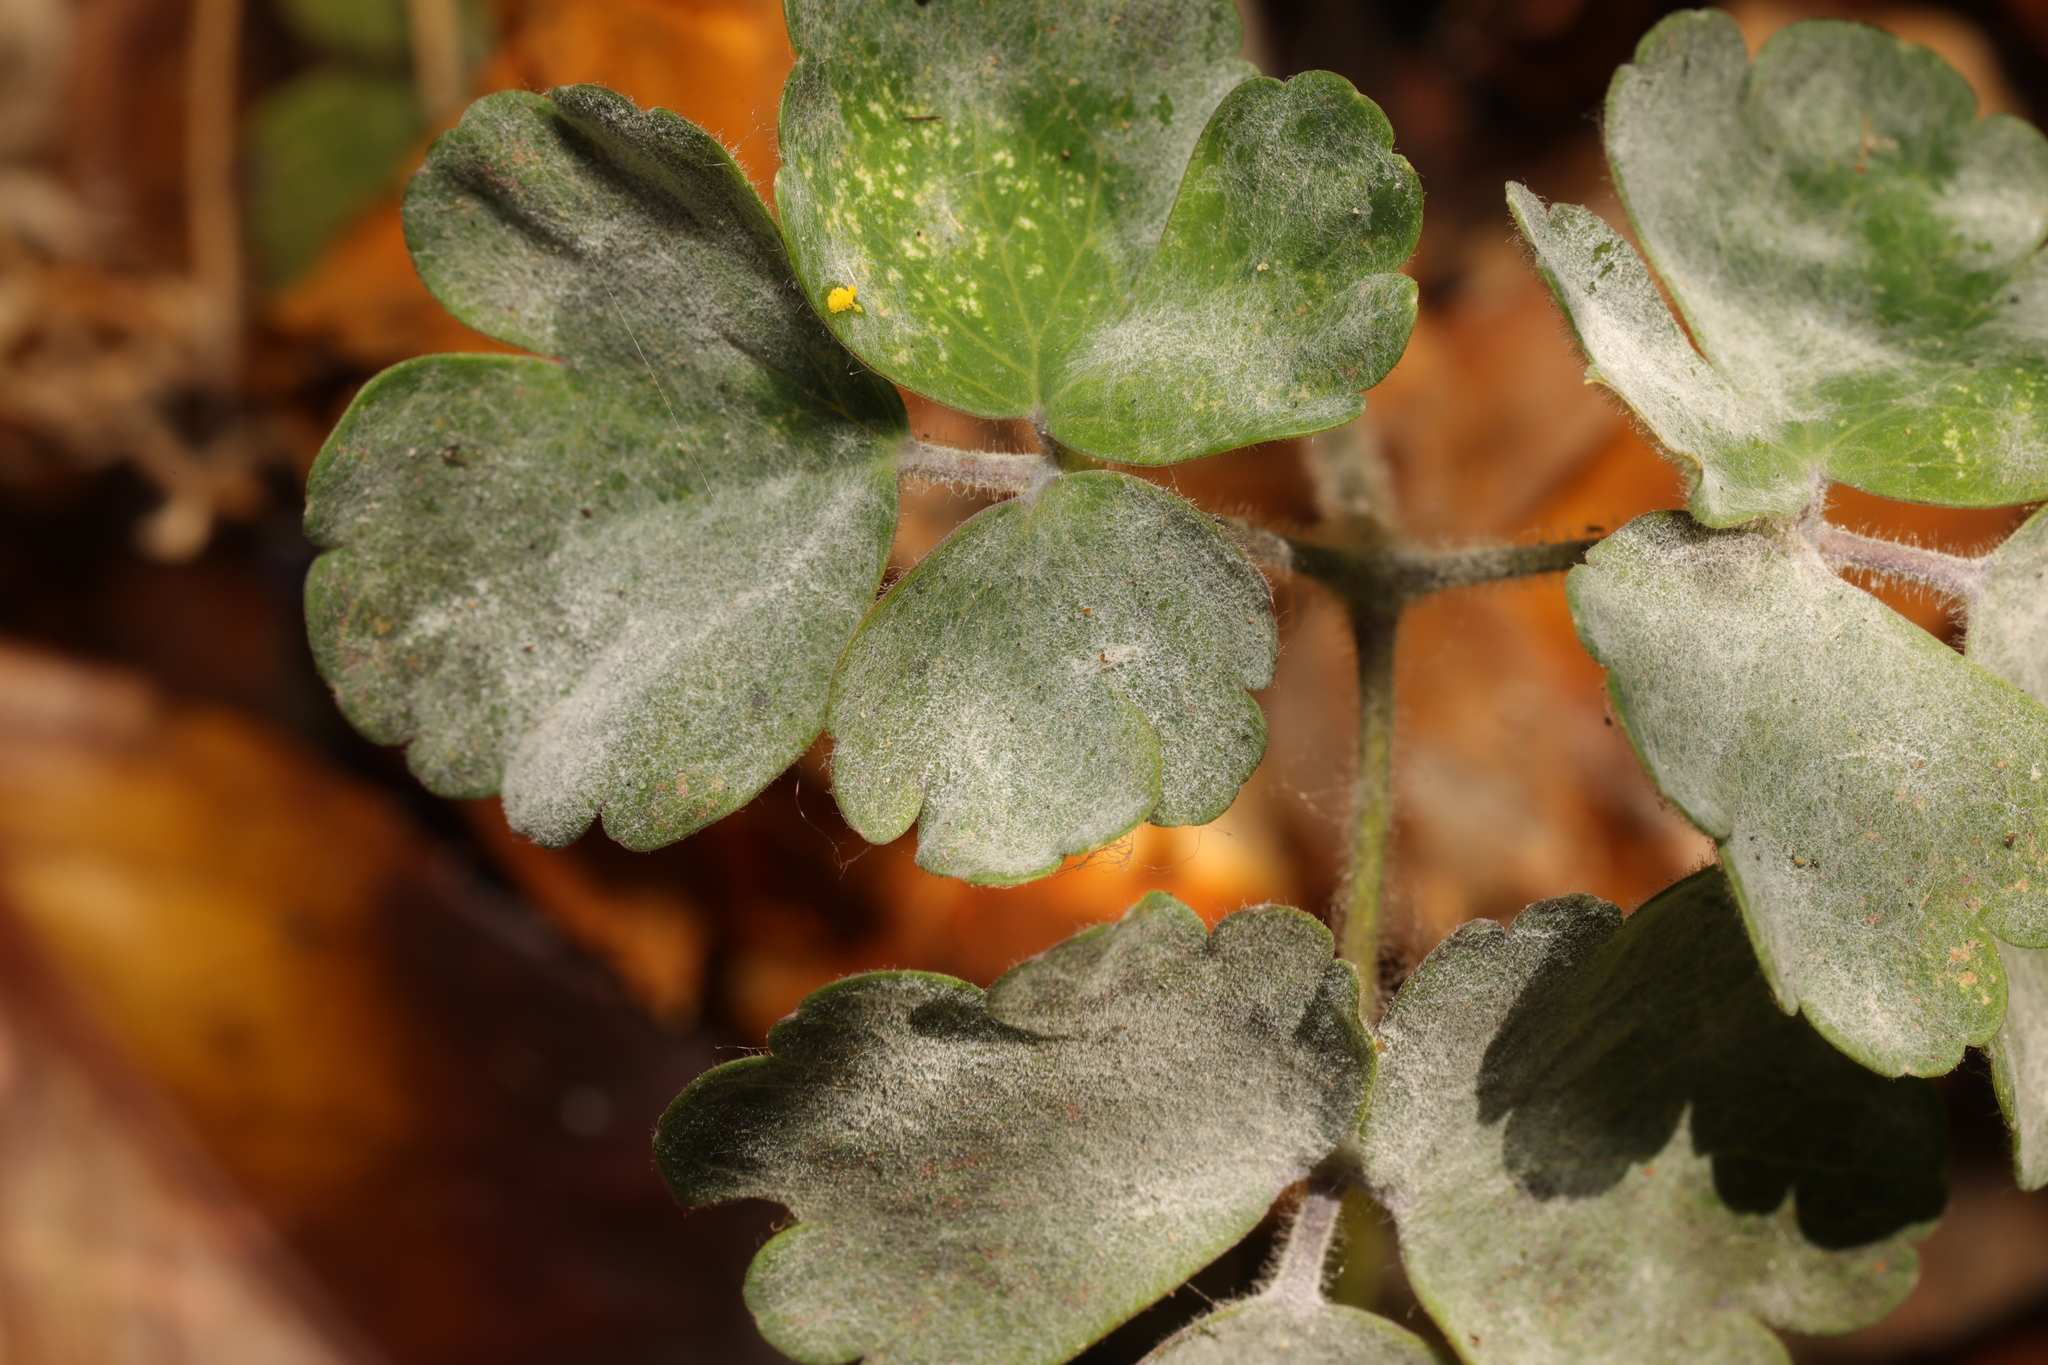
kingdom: Fungi
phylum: Ascomycota
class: Leotiomycetes
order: Helotiales
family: Erysiphaceae
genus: Erysiphe
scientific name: Erysiphe aquilegiae
